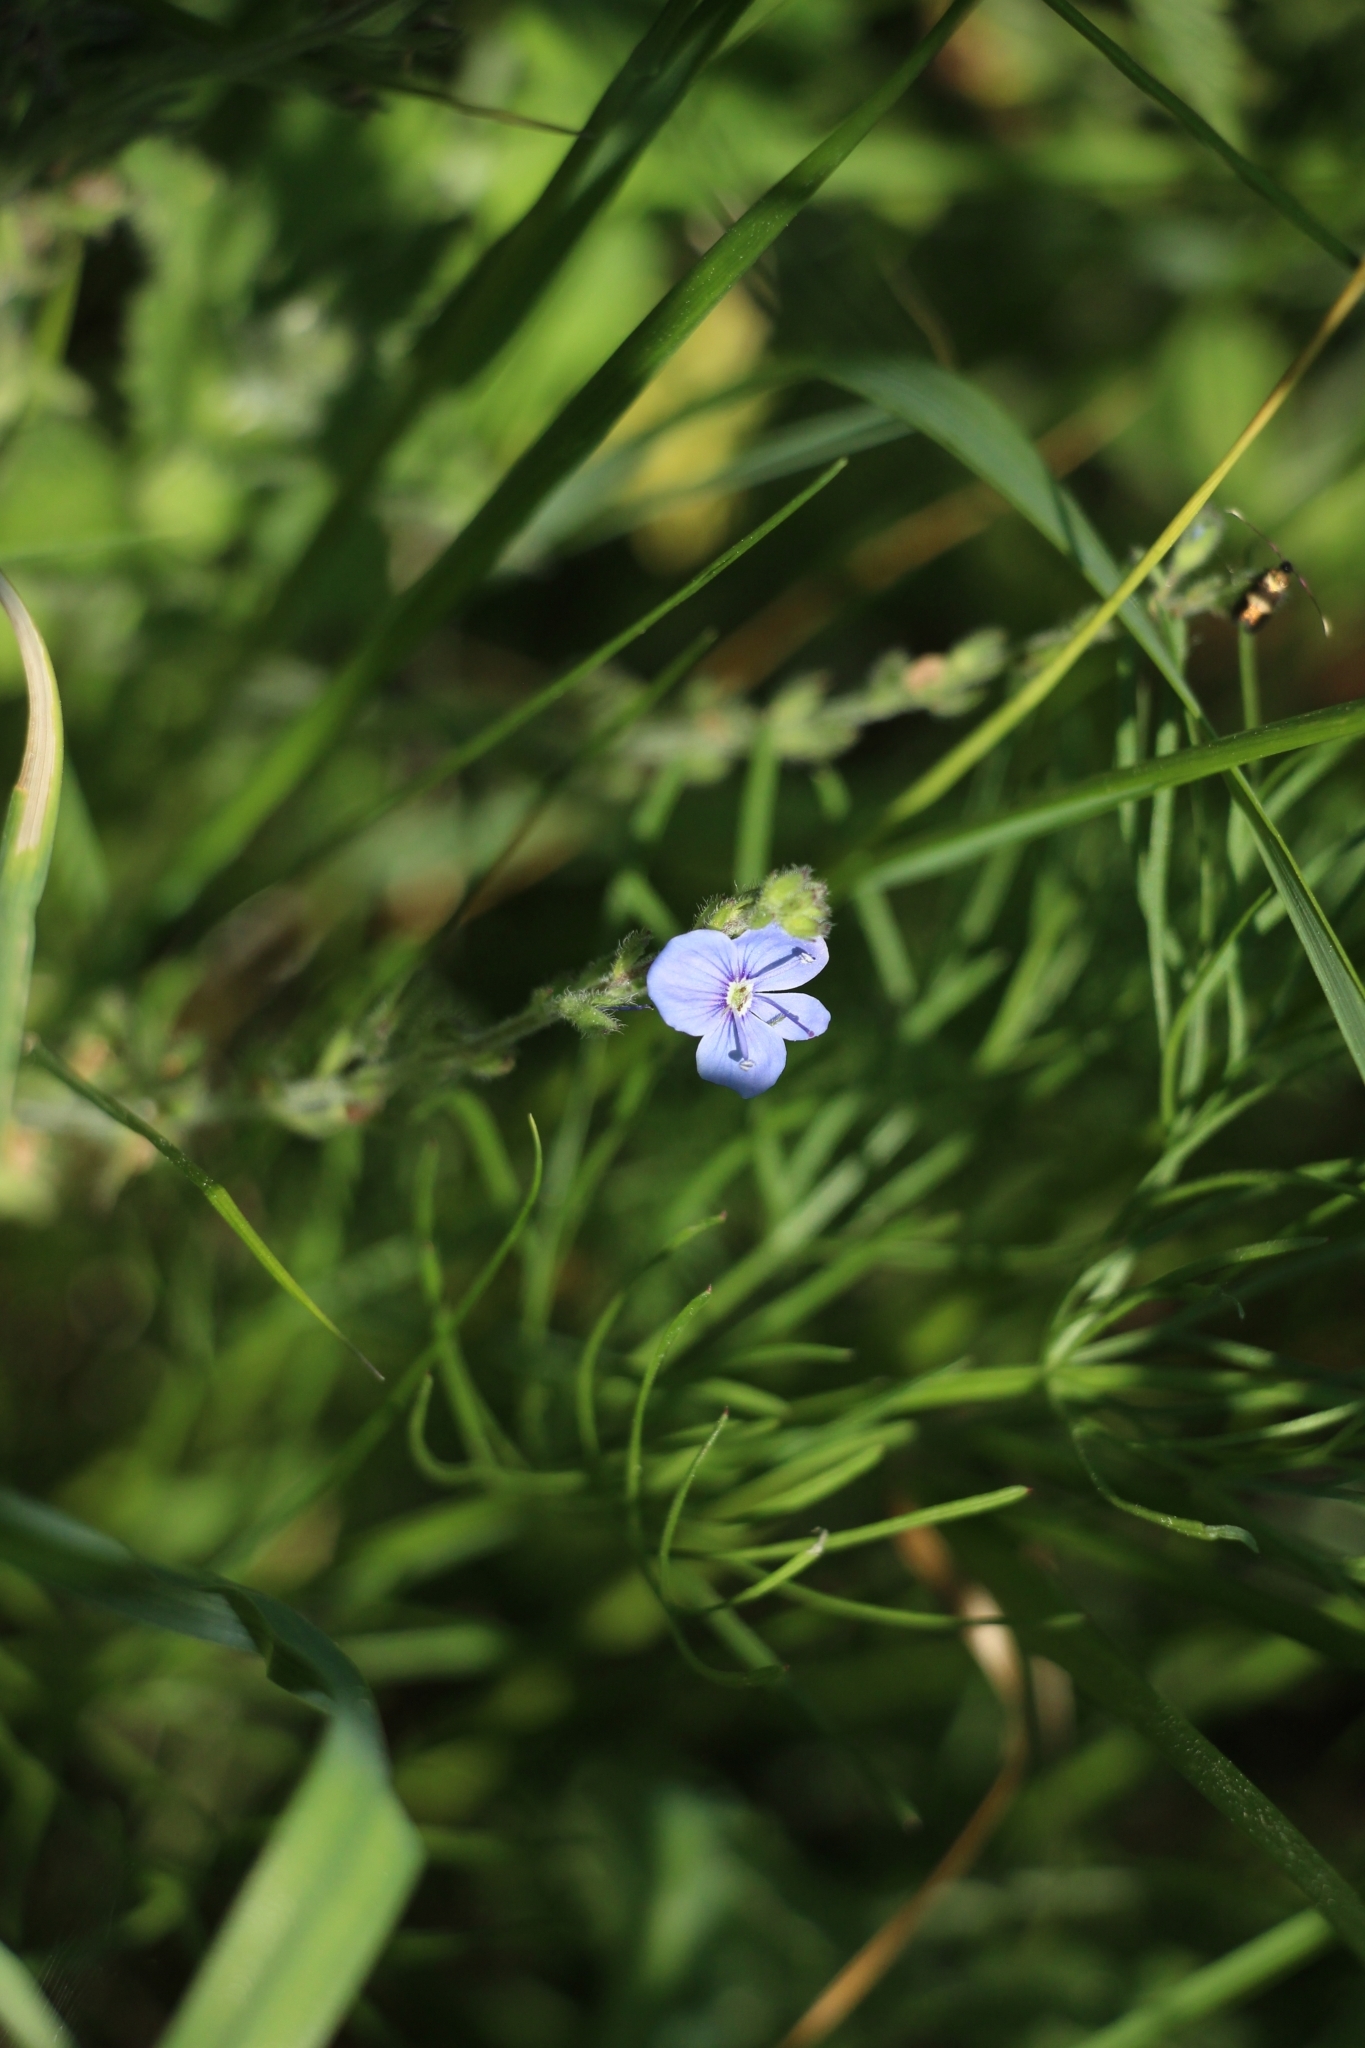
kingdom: Plantae
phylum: Tracheophyta
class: Magnoliopsida
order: Lamiales
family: Plantaginaceae
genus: Veronica
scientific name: Veronica chamaedrys
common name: Germander speedwell
